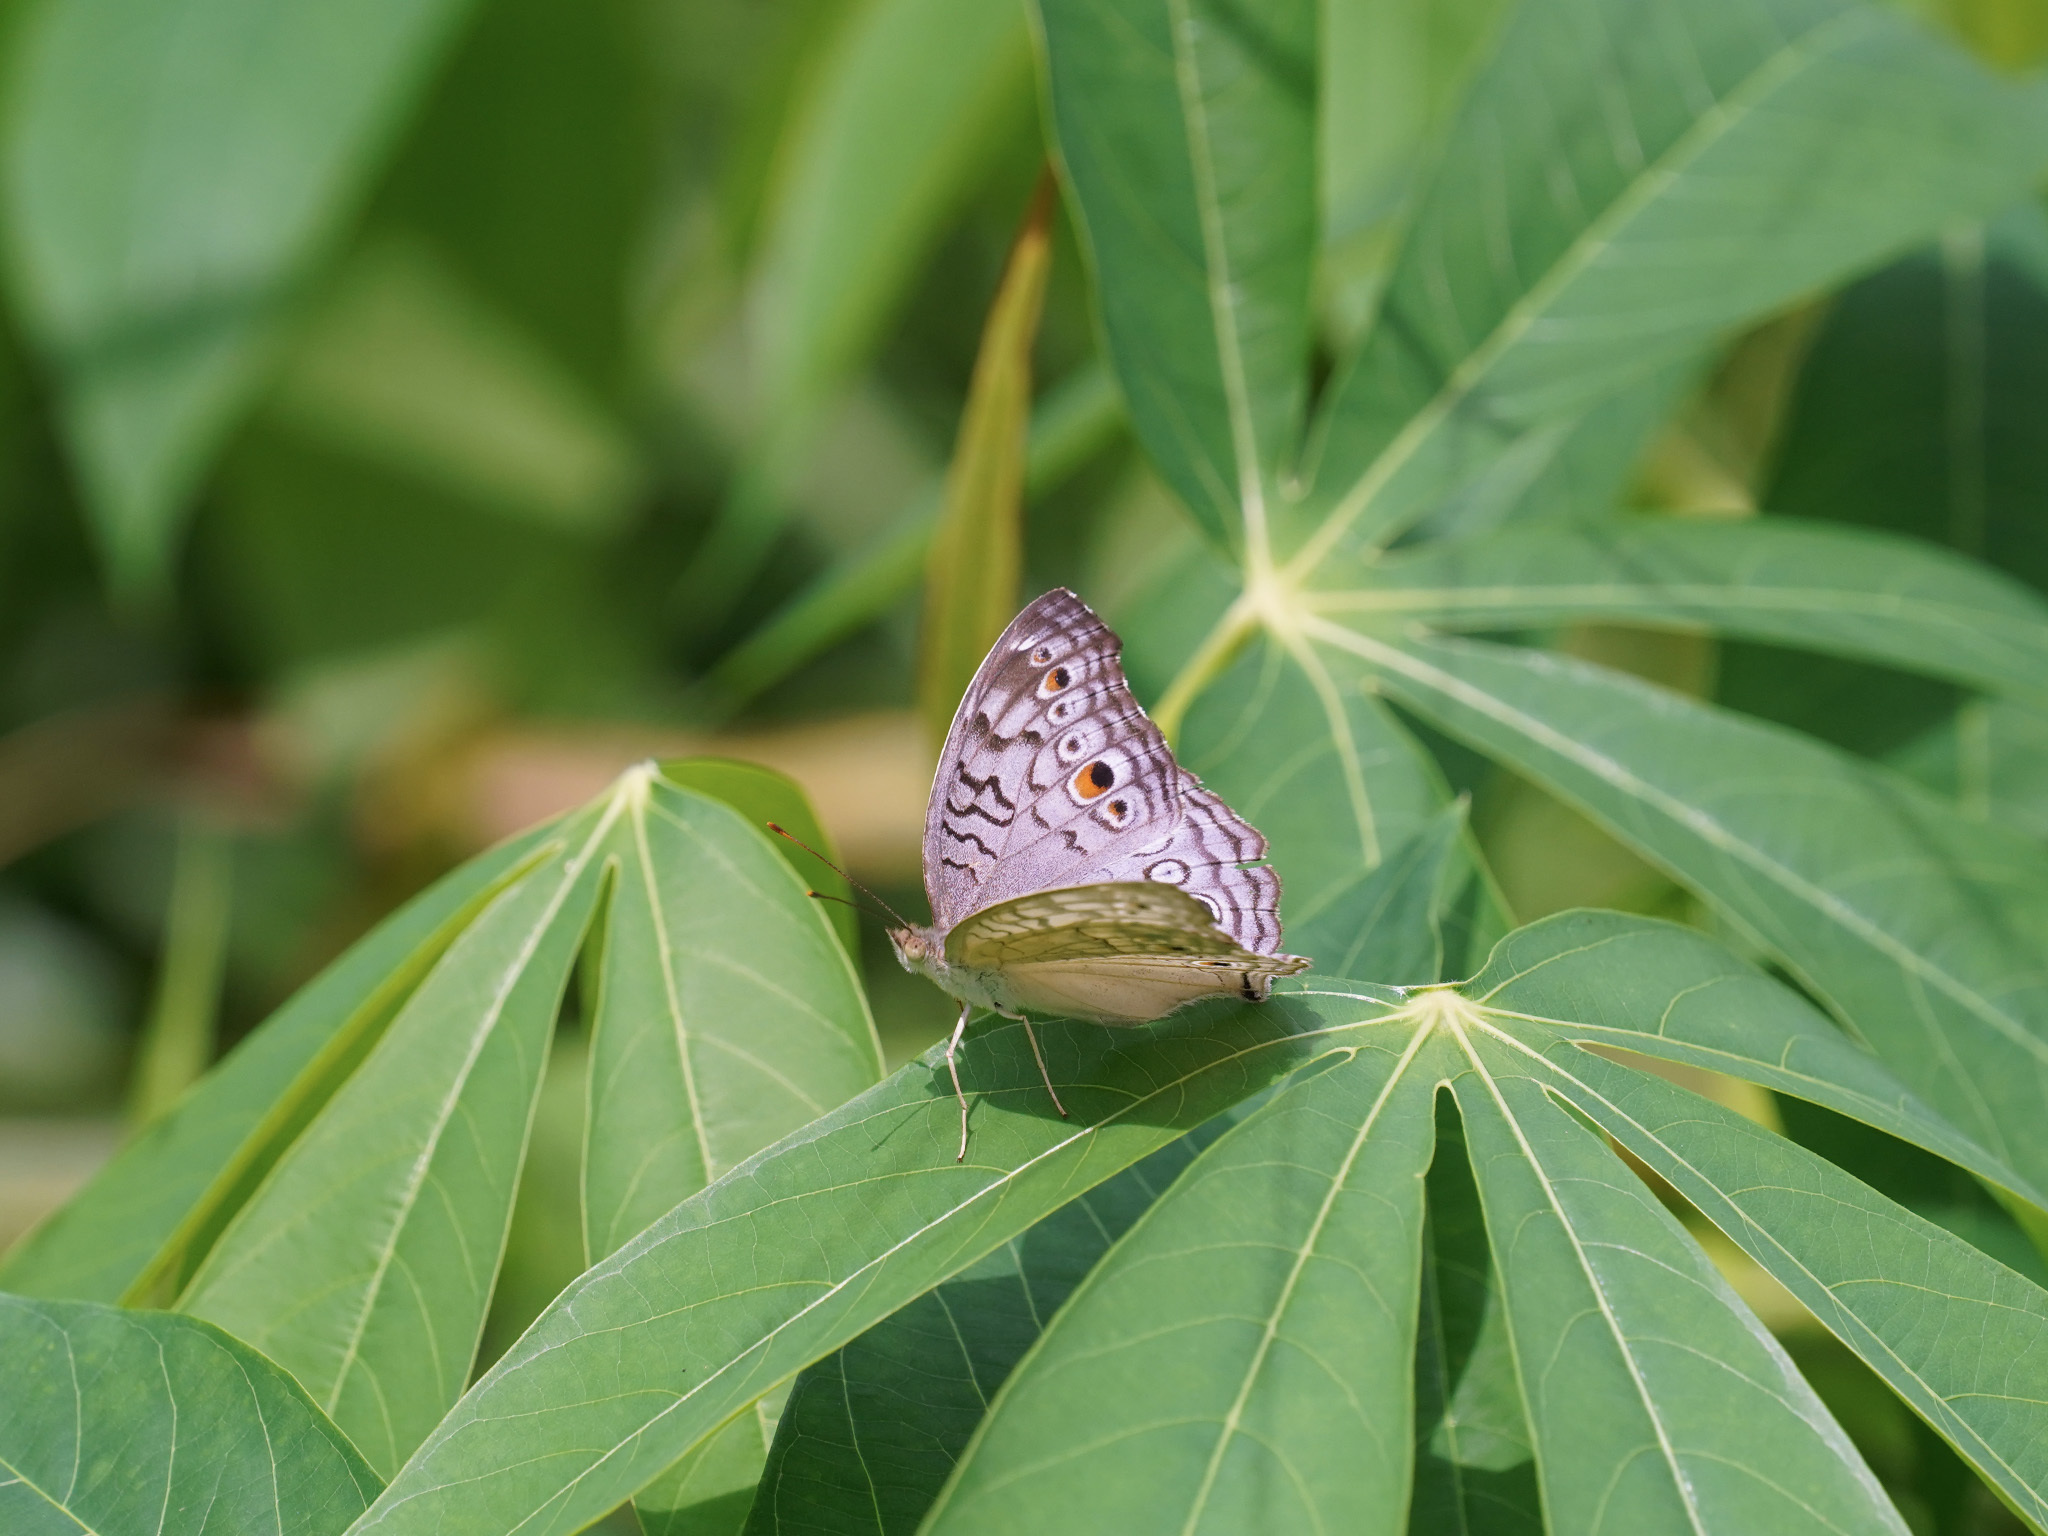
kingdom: Animalia
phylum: Arthropoda
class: Insecta
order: Lepidoptera
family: Nymphalidae
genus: Junonia
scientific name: Junonia atlites
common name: Grey pansy
